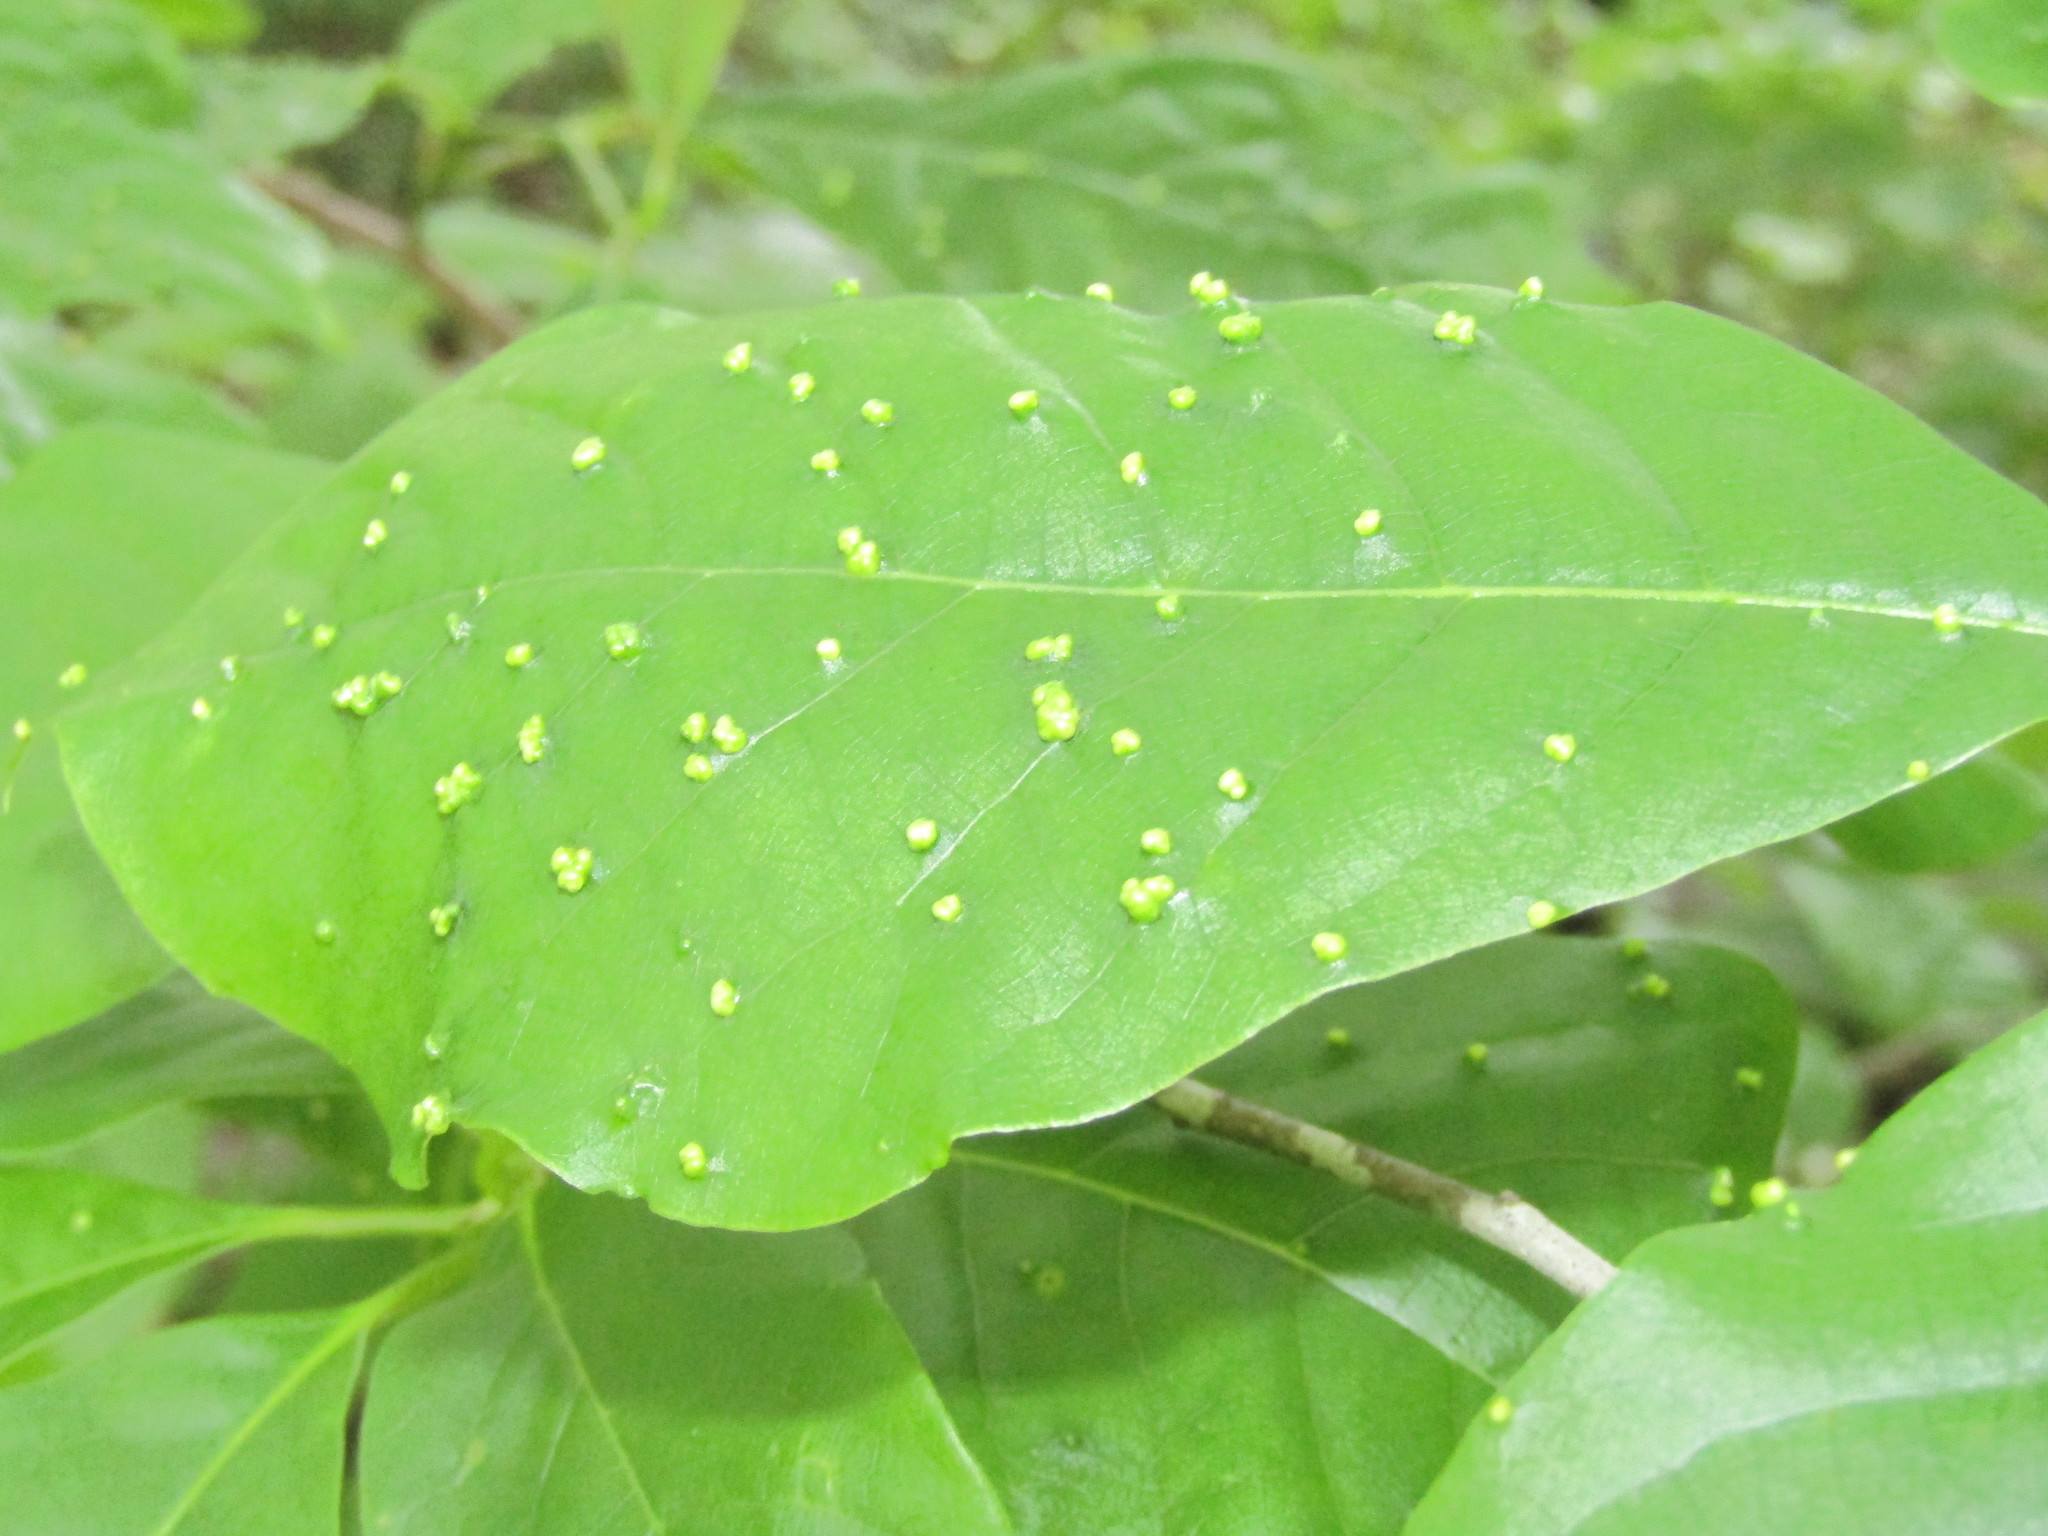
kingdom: Animalia
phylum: Arthropoda
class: Arachnida
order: Trombidiformes
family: Eriophyidae
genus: Aceria
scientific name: Aceria
